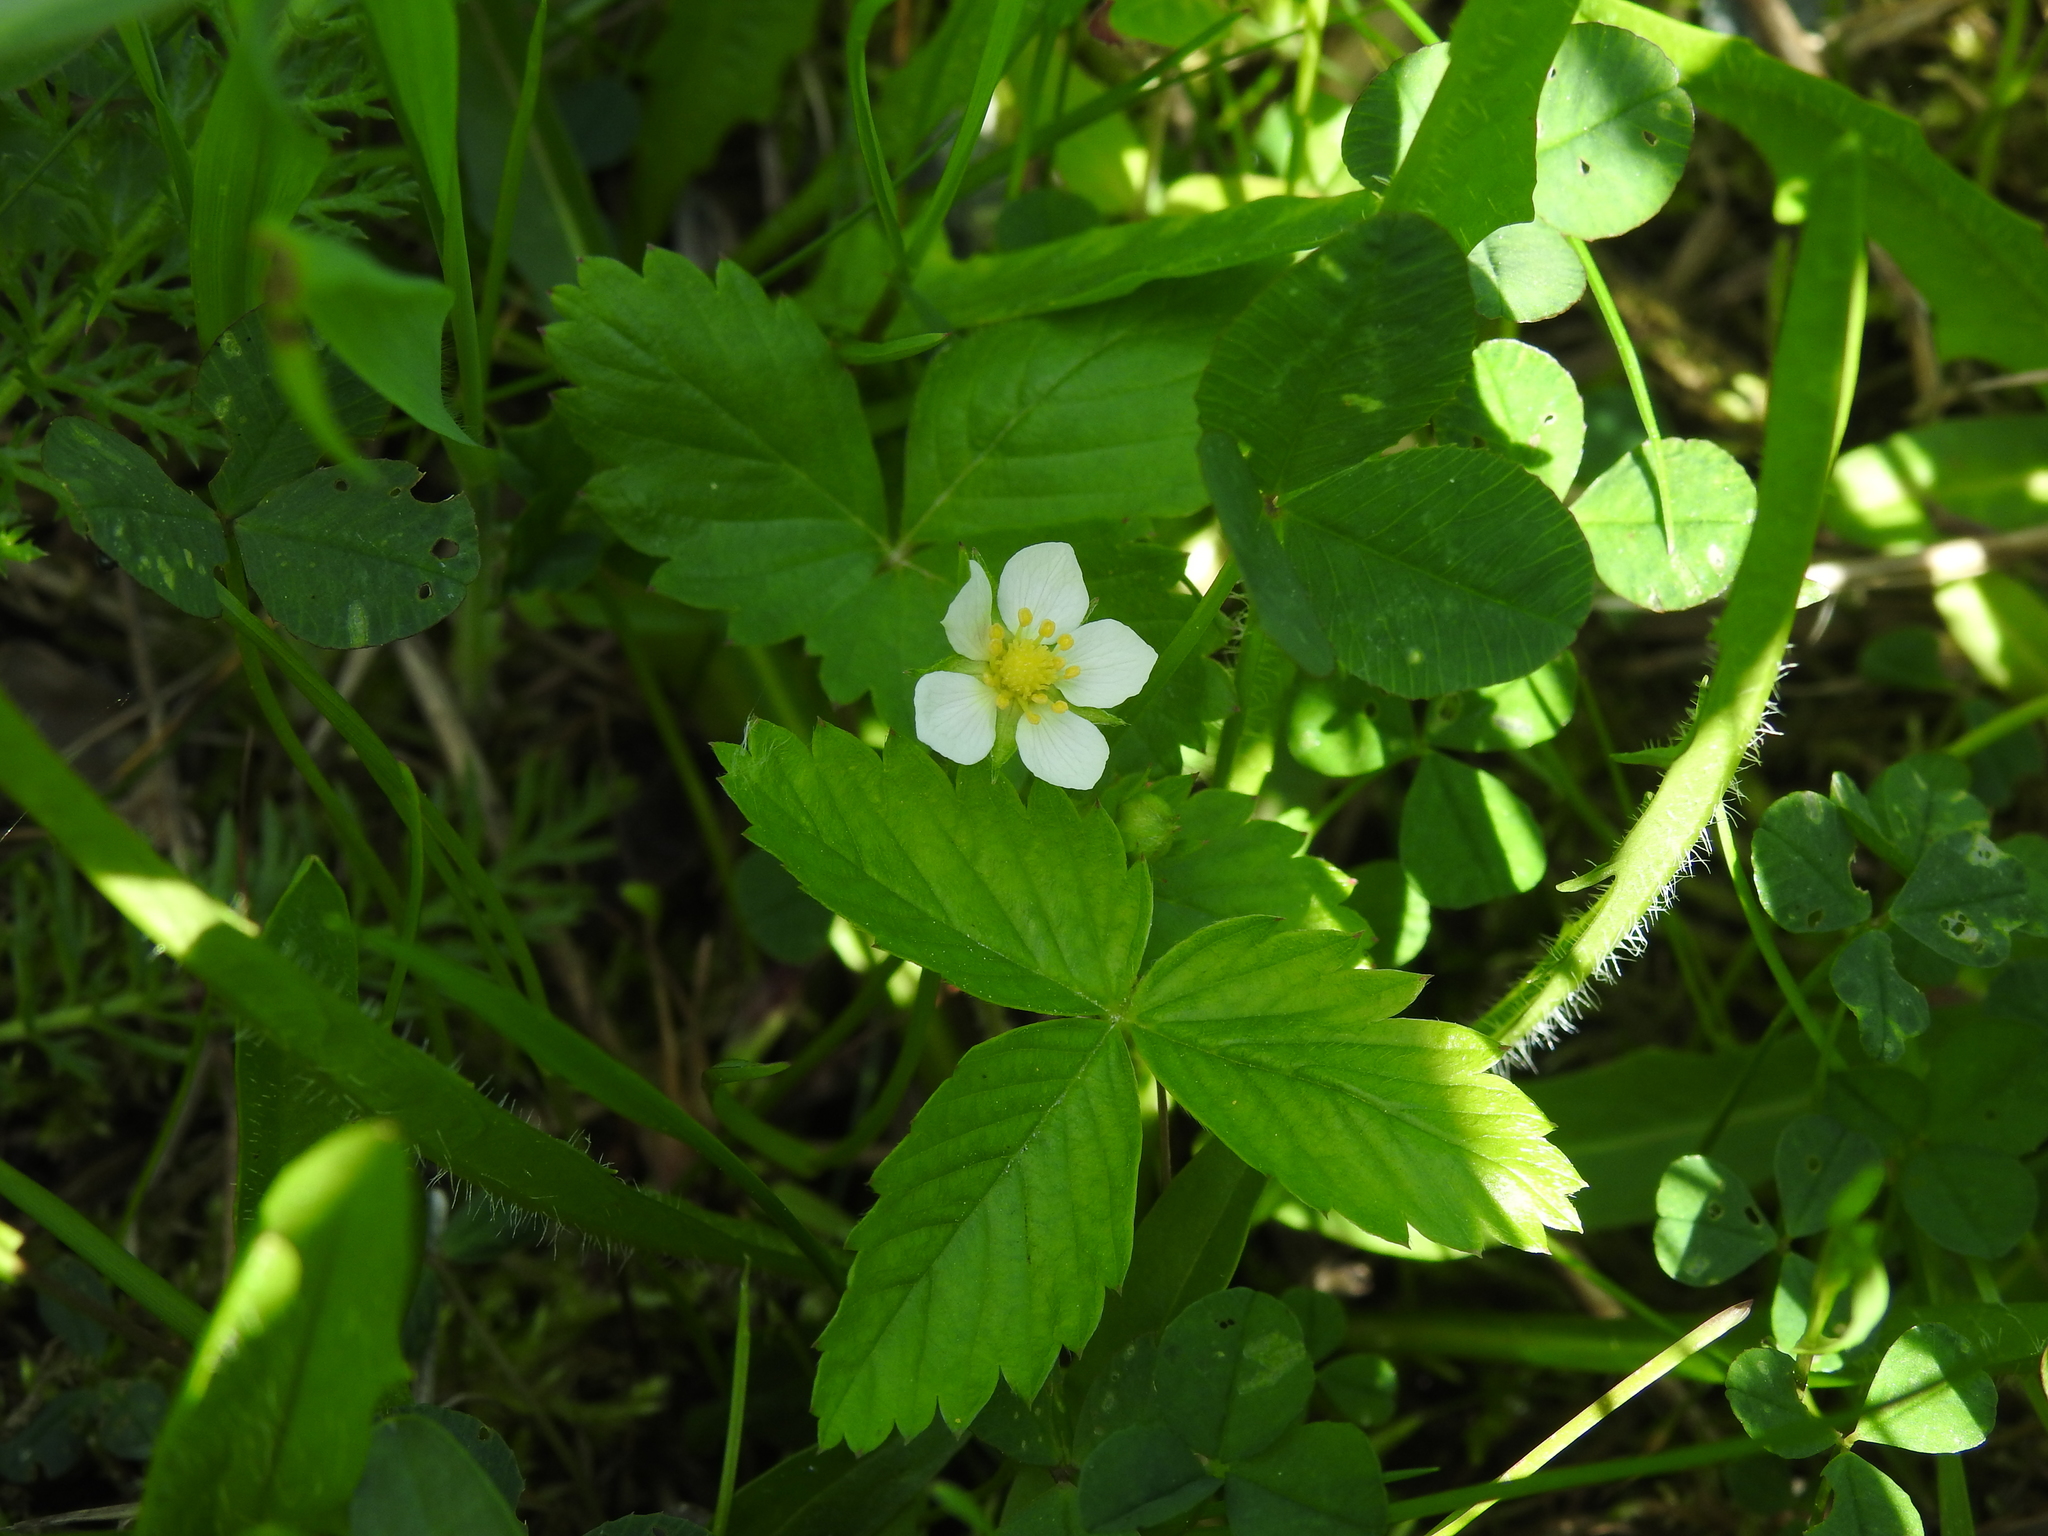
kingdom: Plantae
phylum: Tracheophyta
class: Magnoliopsida
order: Rosales
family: Rosaceae
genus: Fragaria
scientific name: Fragaria vesca
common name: Wild strawberry
